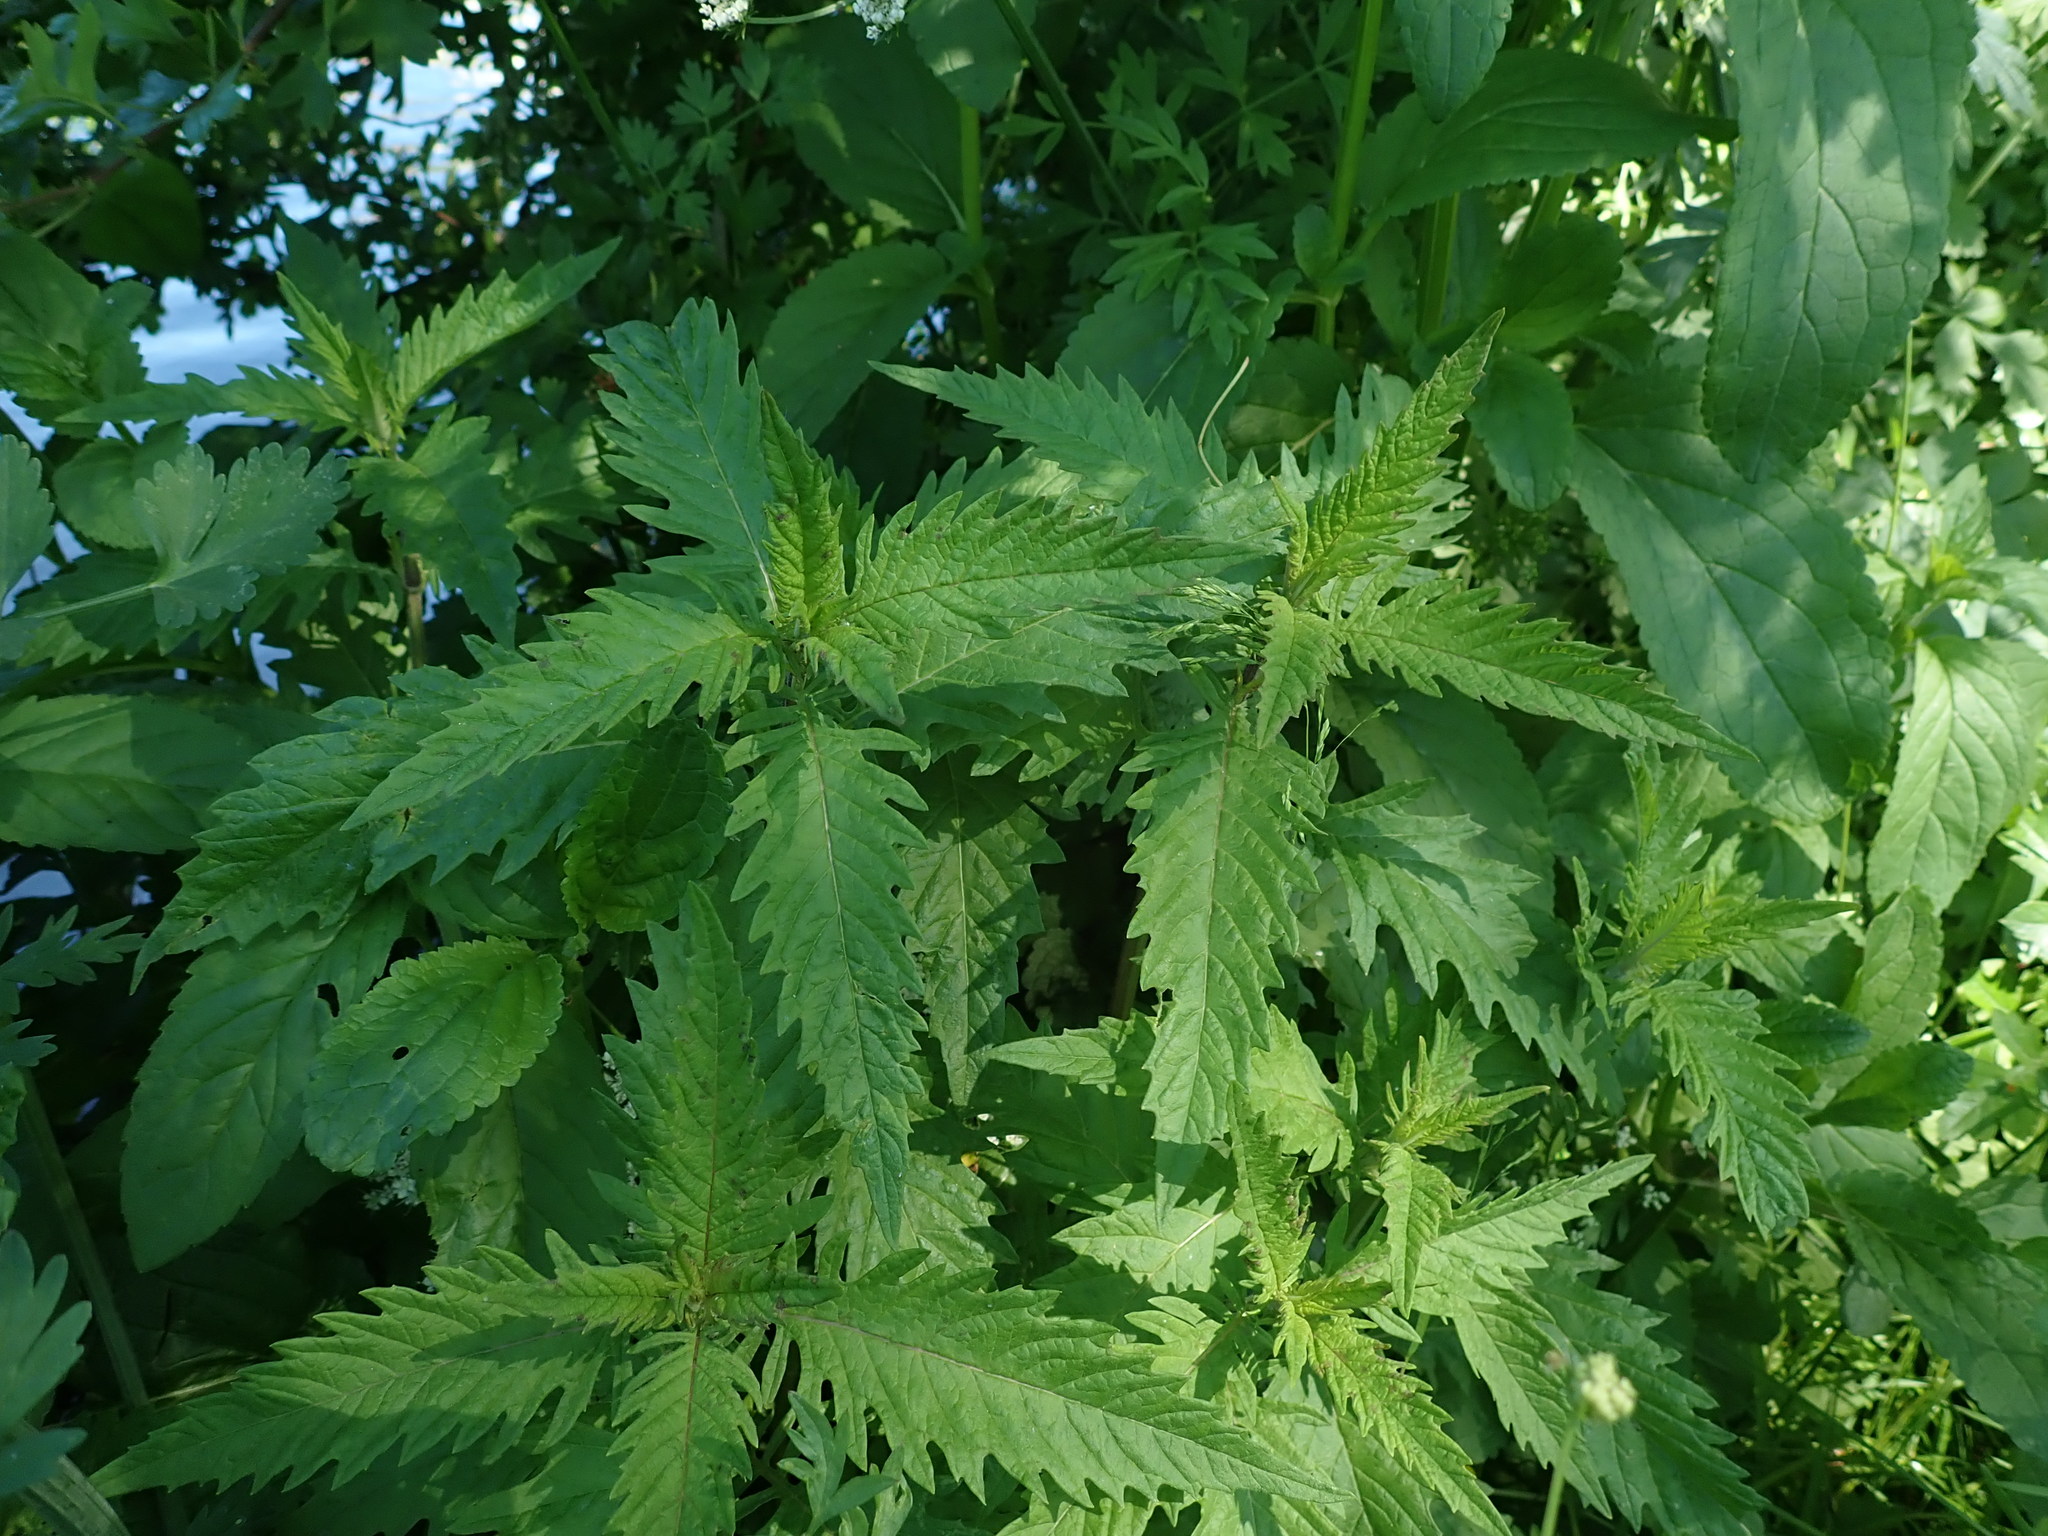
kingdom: Plantae
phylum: Tracheophyta
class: Magnoliopsida
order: Lamiales
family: Lamiaceae
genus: Lycopus
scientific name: Lycopus europaeus
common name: European bugleweed
